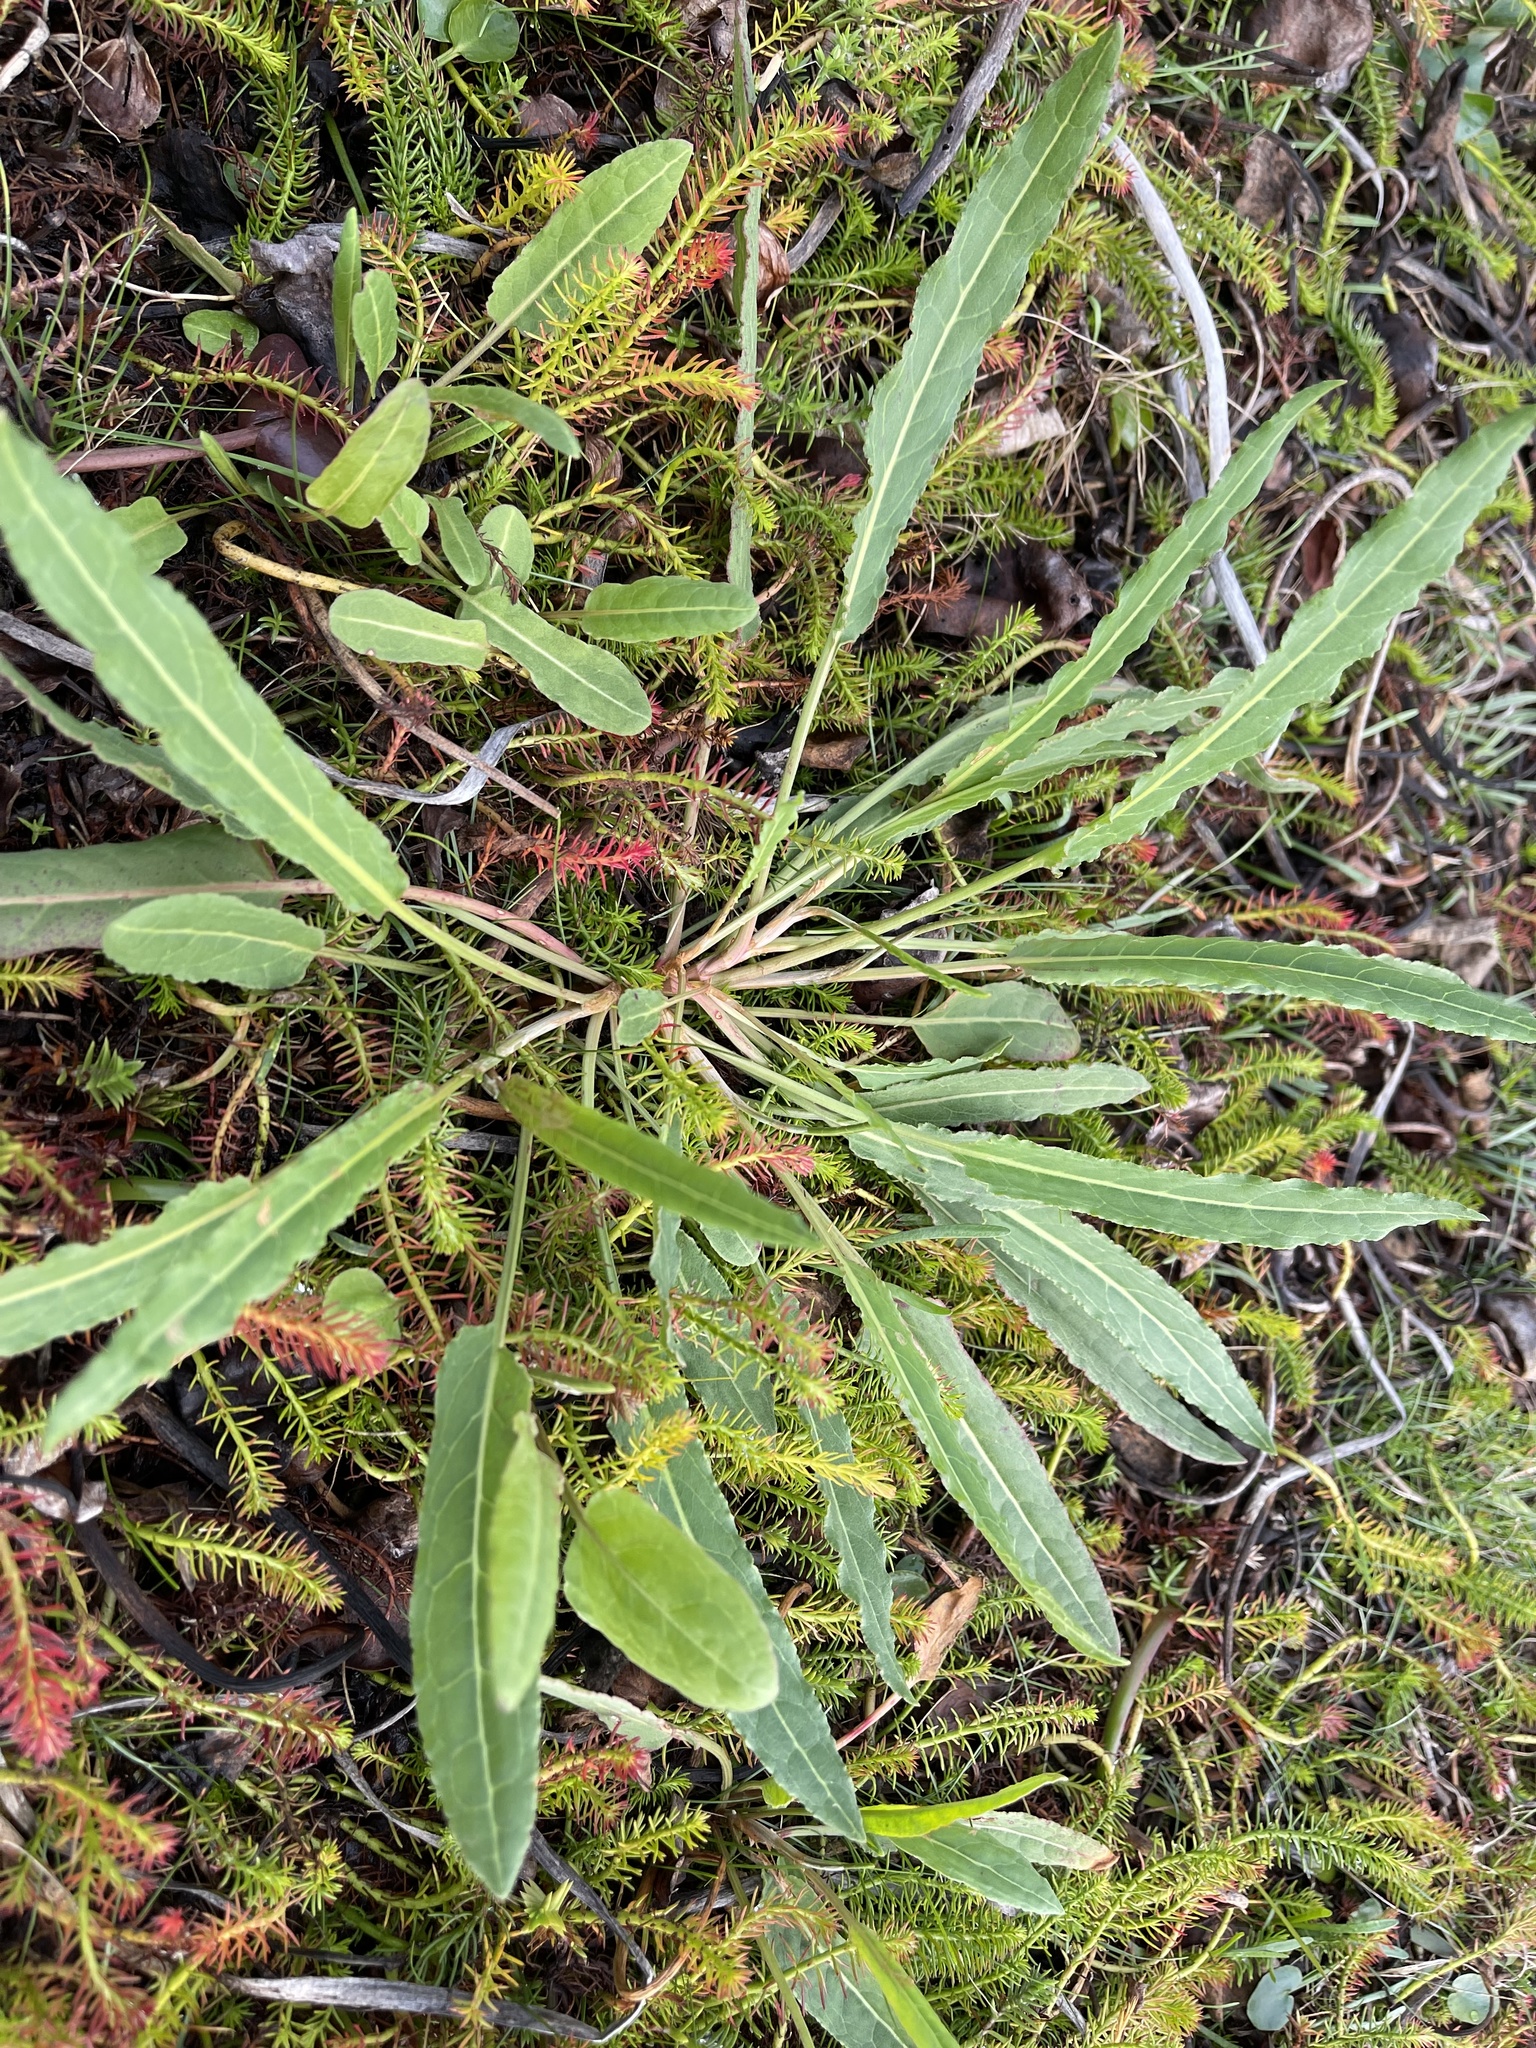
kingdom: Plantae
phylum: Tracheophyta
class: Magnoliopsida
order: Caryophyllales
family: Polygonaceae
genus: Rumex
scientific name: Rumex bidens
